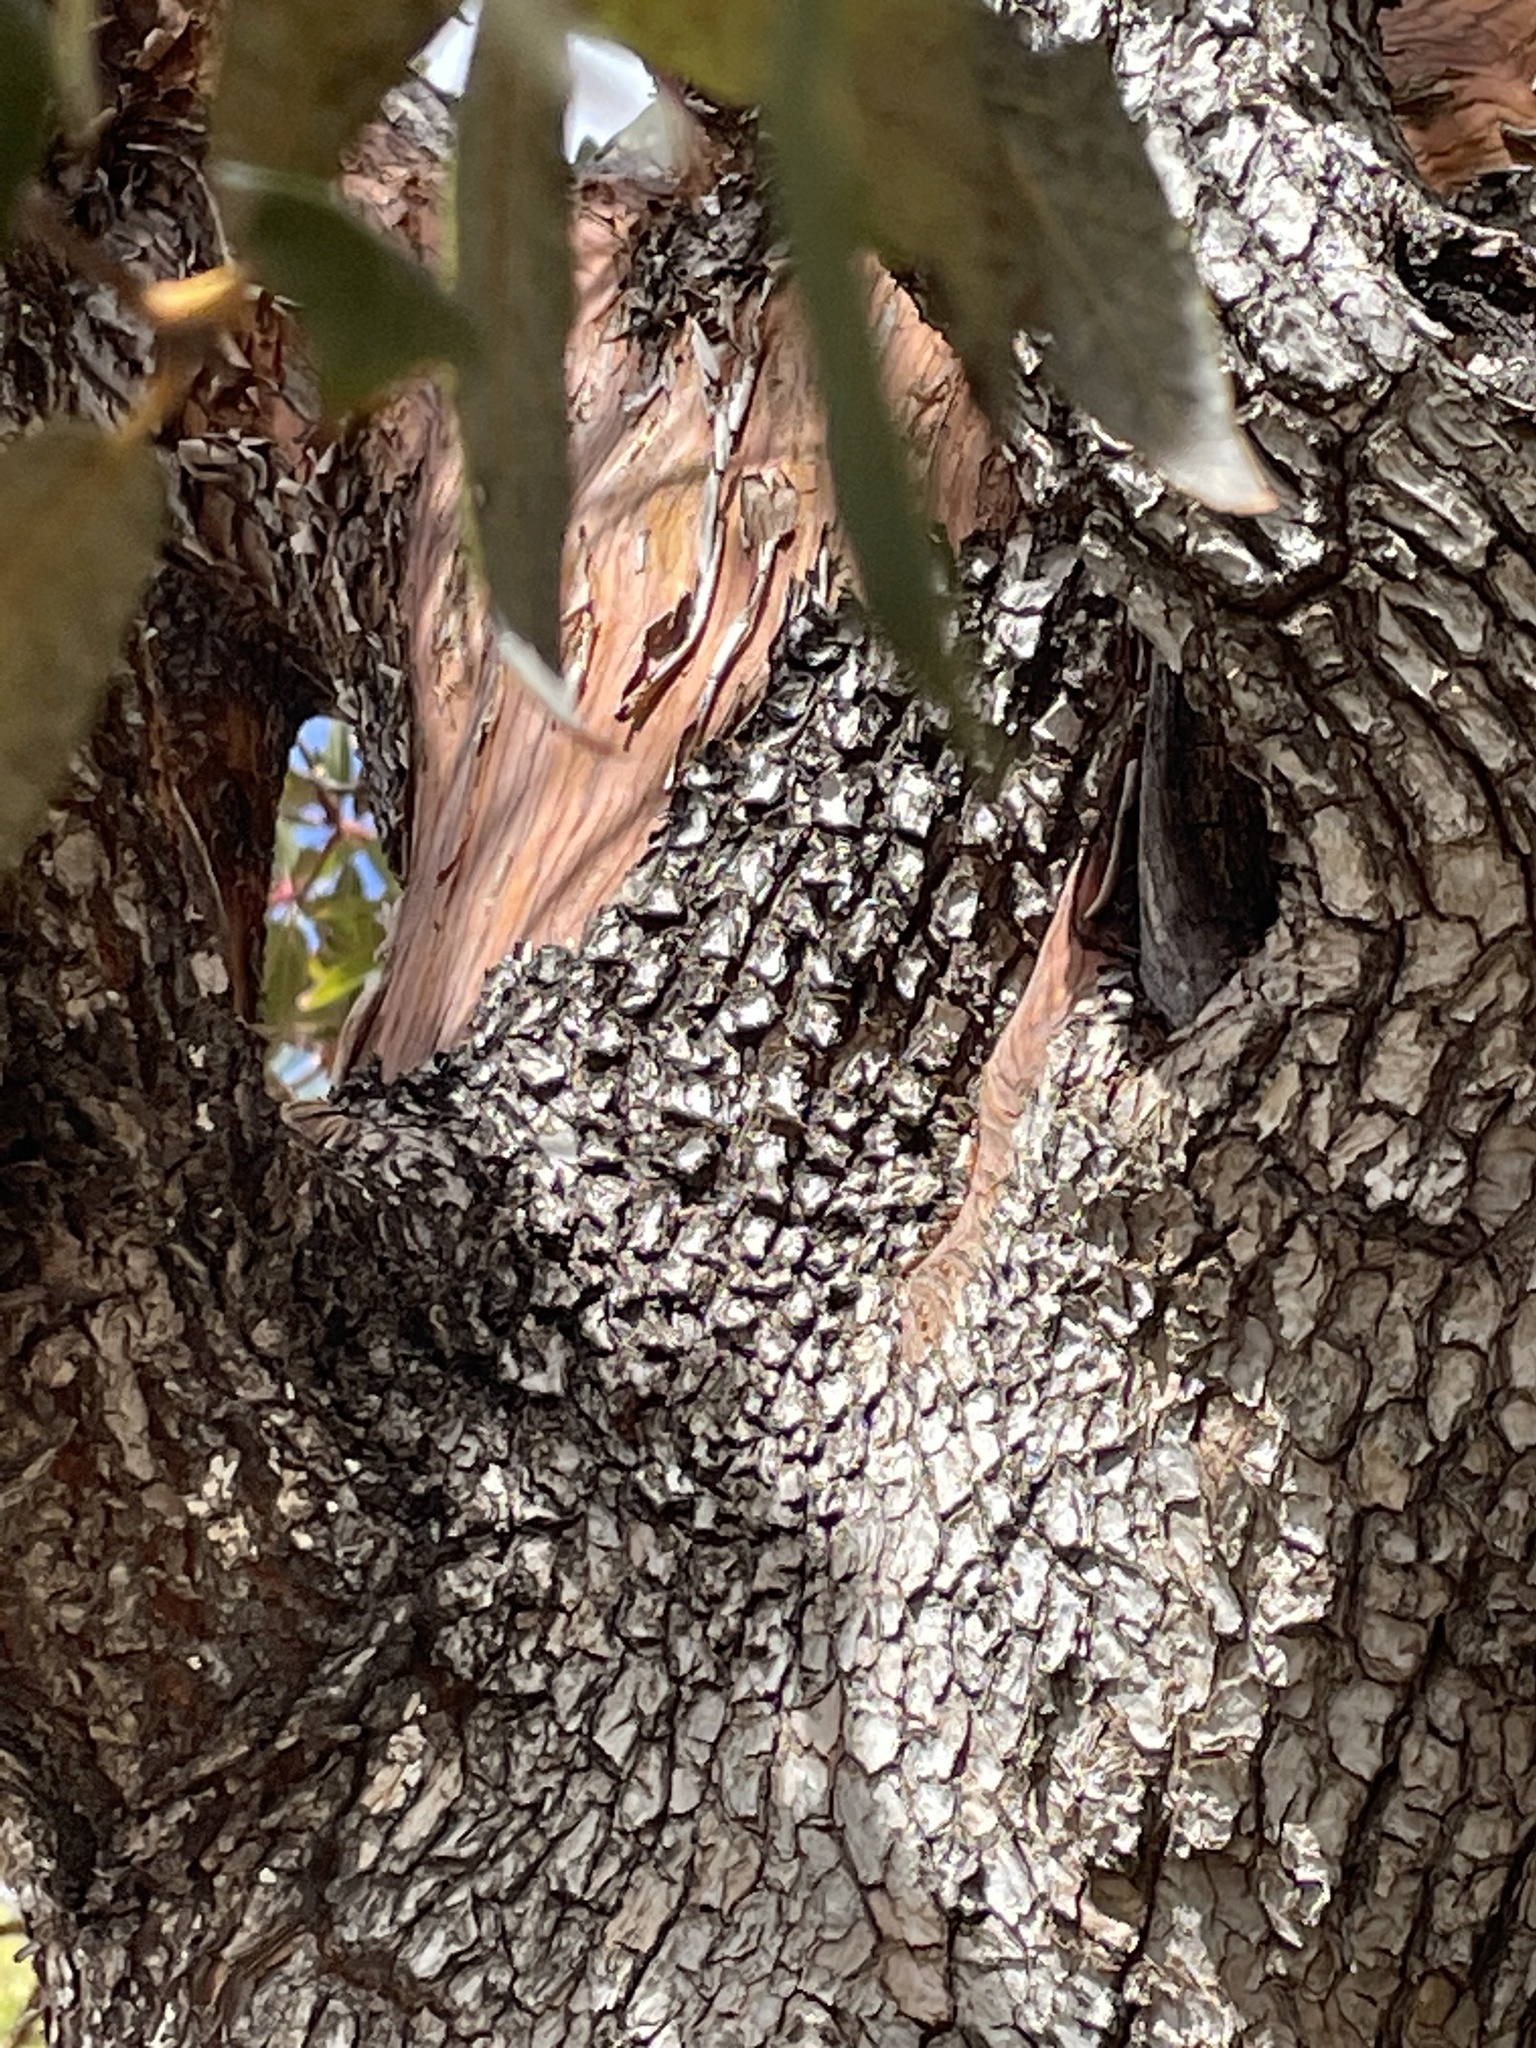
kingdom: Plantae
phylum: Tracheophyta
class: Magnoliopsida
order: Ericales
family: Ericaceae
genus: Arbutus
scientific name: Arbutus arizonica
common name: Arizona madrone
